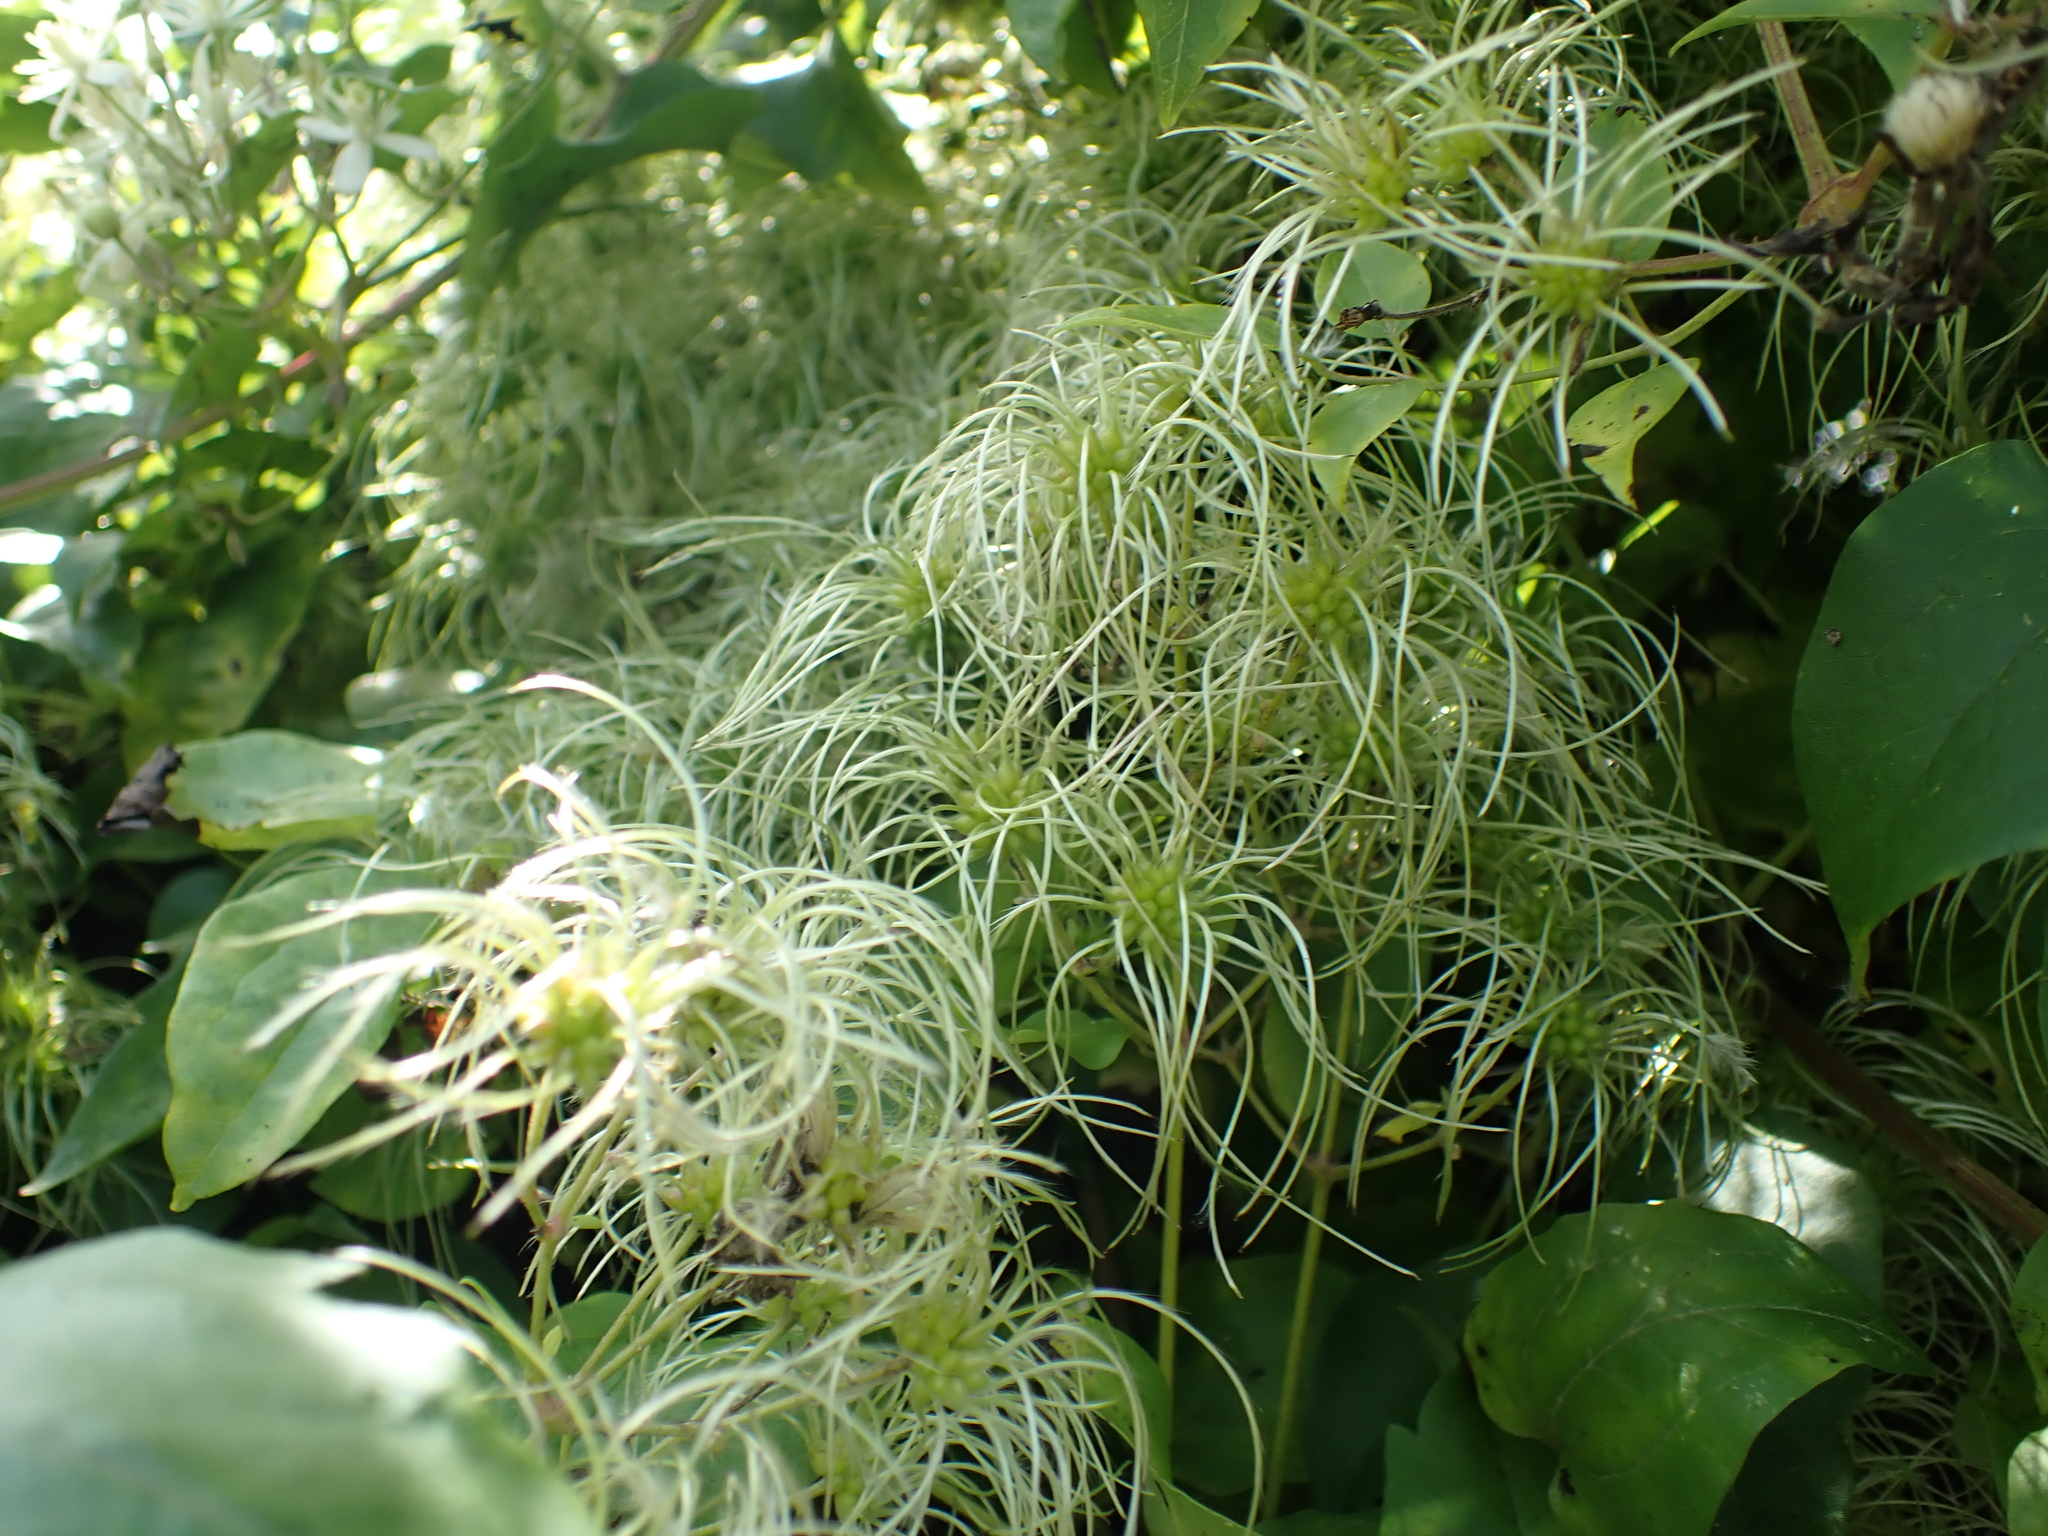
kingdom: Plantae
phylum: Tracheophyta
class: Magnoliopsida
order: Ranunculales
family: Ranunculaceae
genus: Clematis
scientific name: Clematis vitalba
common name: Evergreen clematis
